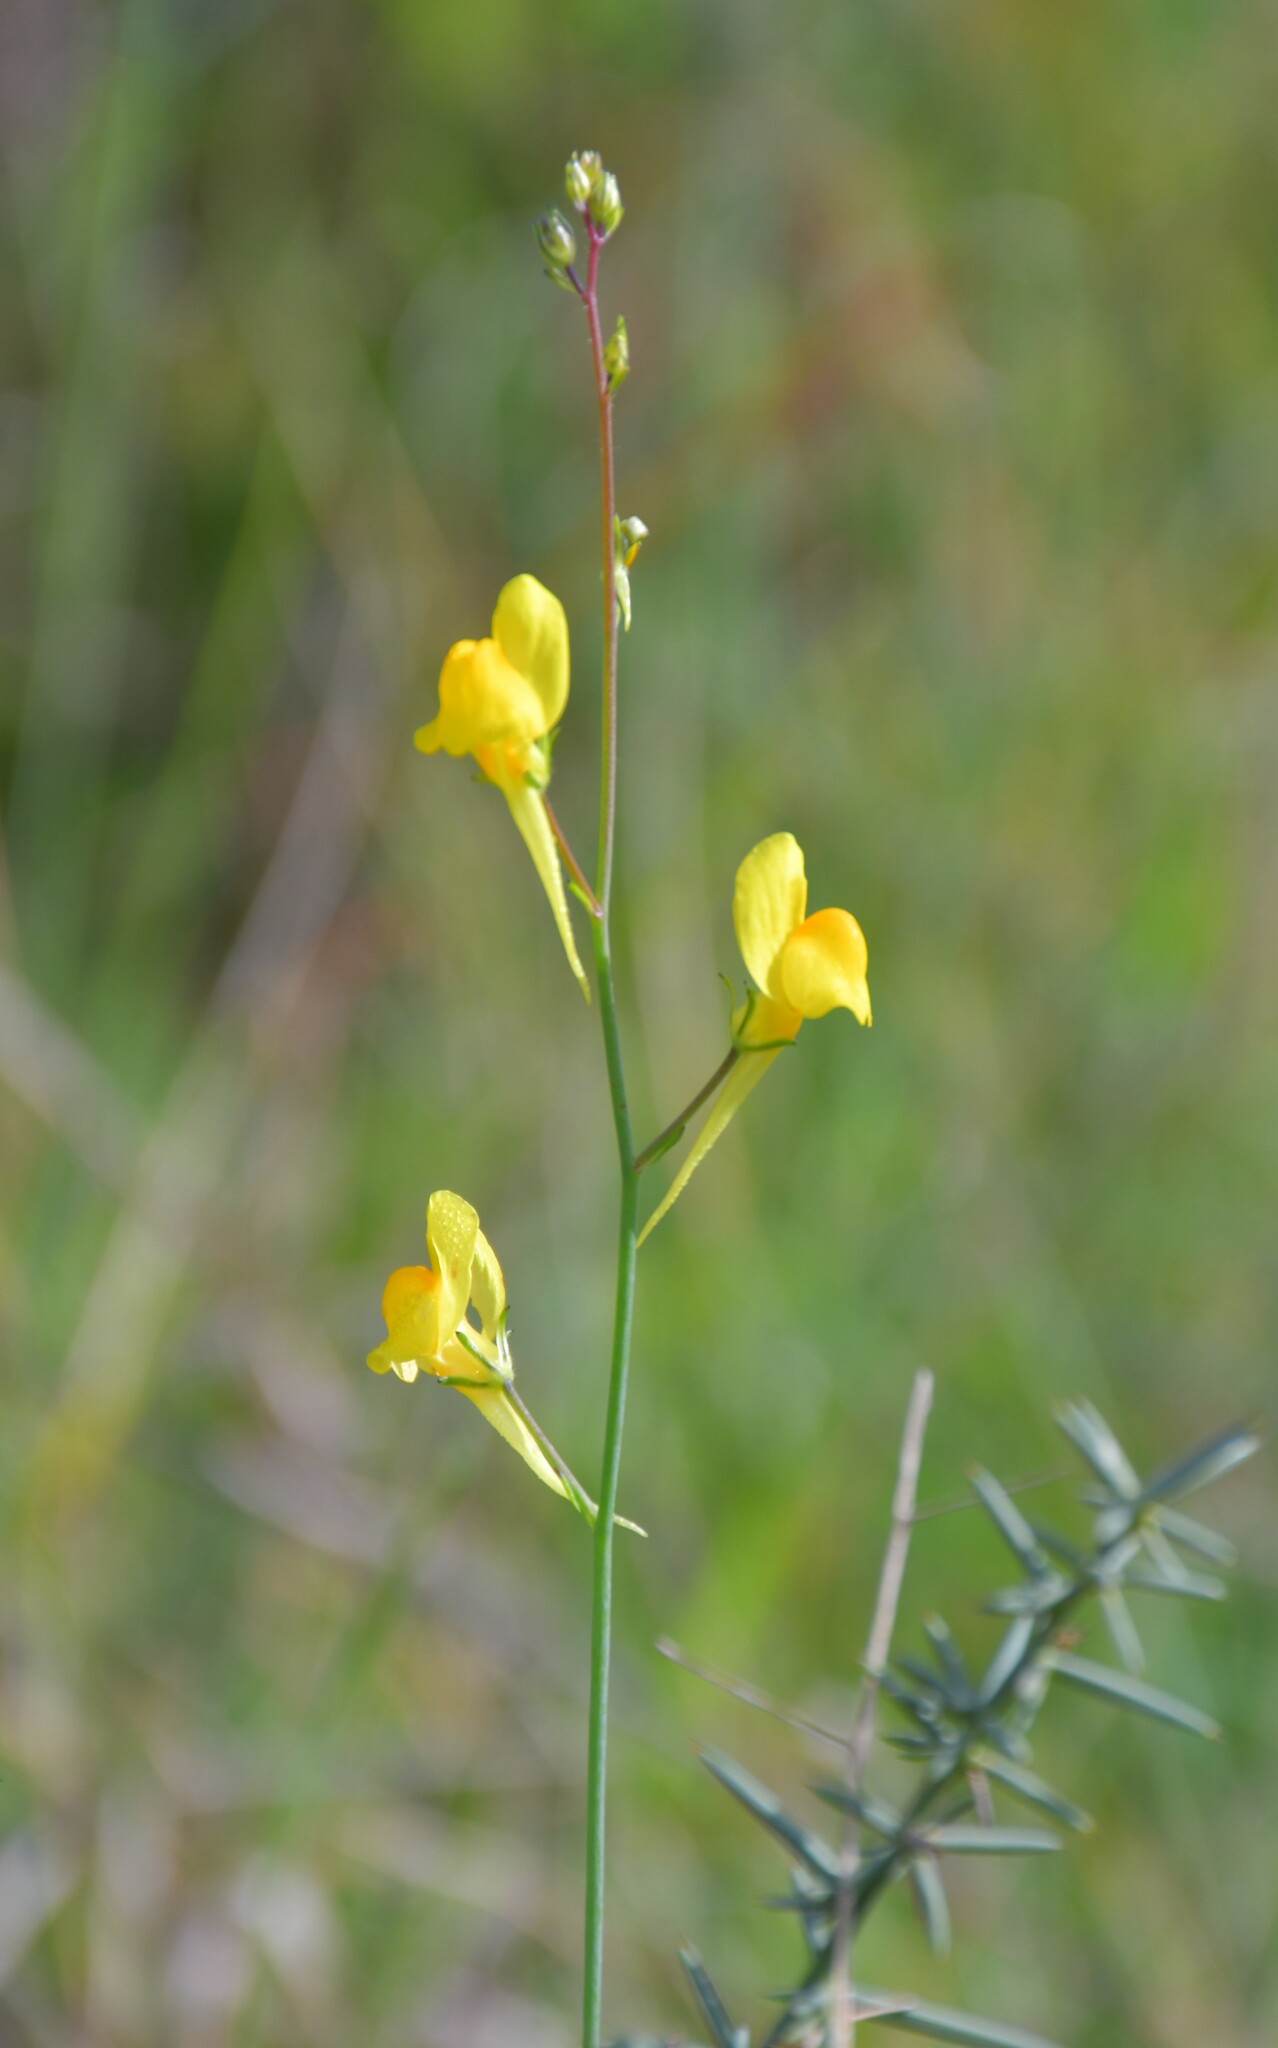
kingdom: Plantae
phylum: Tracheophyta
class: Magnoliopsida
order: Lamiales
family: Plantaginaceae
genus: Linaria
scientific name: Linaria spartea
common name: Ballast toadflax
